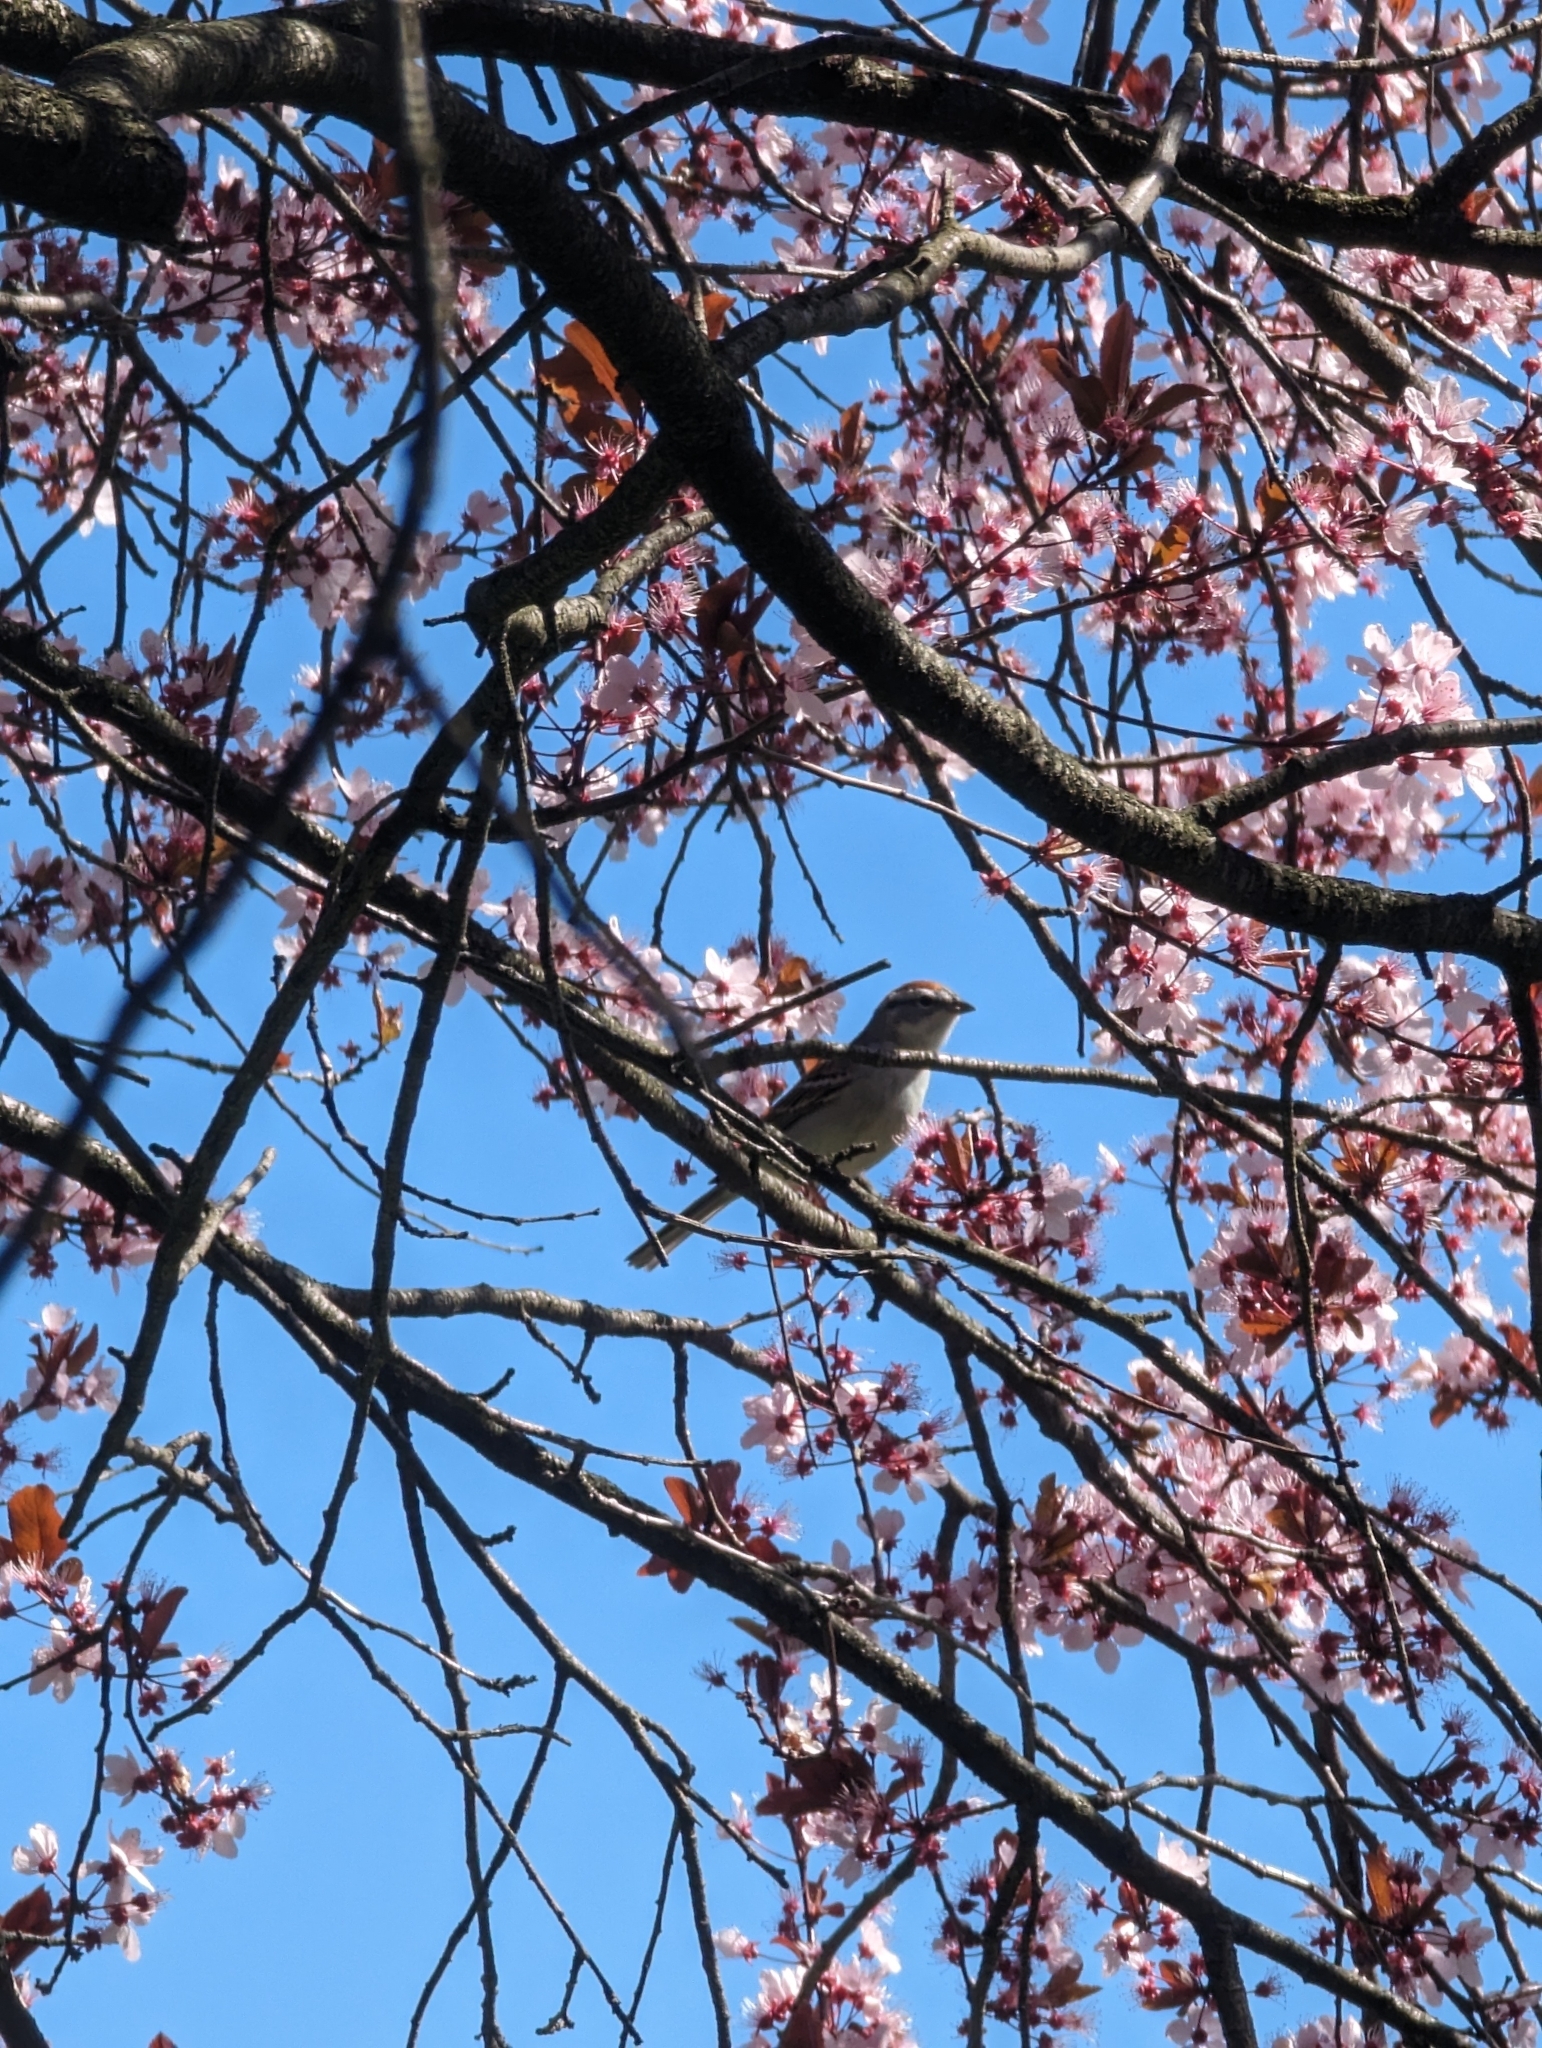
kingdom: Animalia
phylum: Chordata
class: Aves
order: Passeriformes
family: Passerellidae
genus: Spizella
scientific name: Spizella passerina
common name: Chipping sparrow
